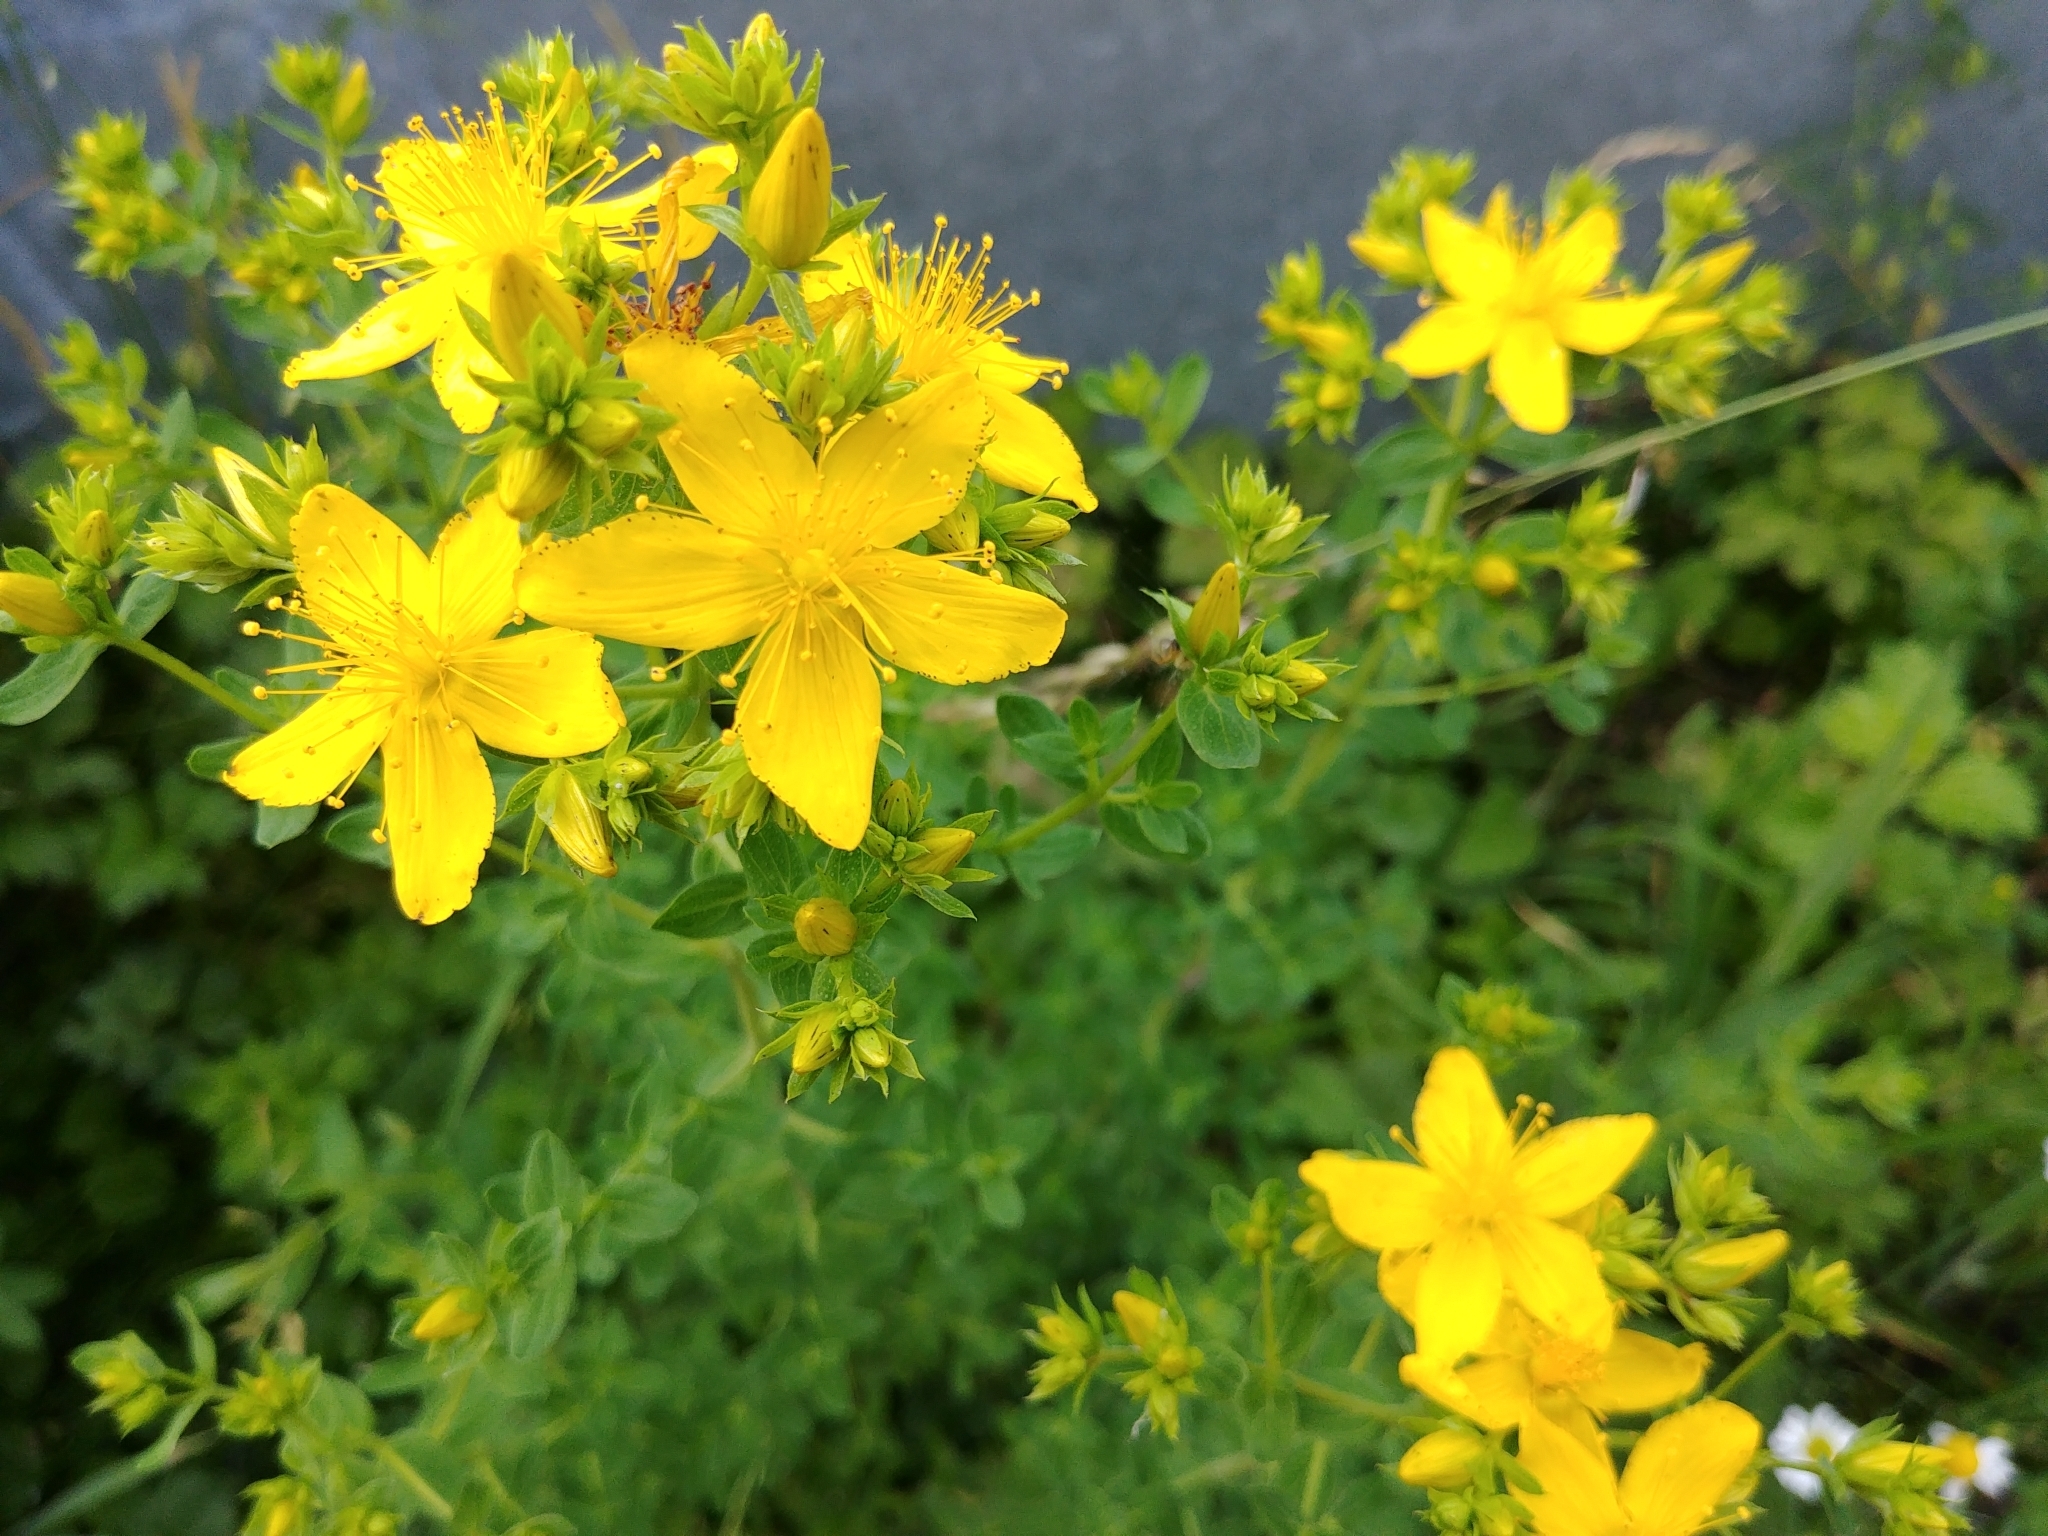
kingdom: Plantae
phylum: Tracheophyta
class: Magnoliopsida
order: Malpighiales
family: Hypericaceae
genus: Hypericum
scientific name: Hypericum perforatum
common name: Common st. johnswort
